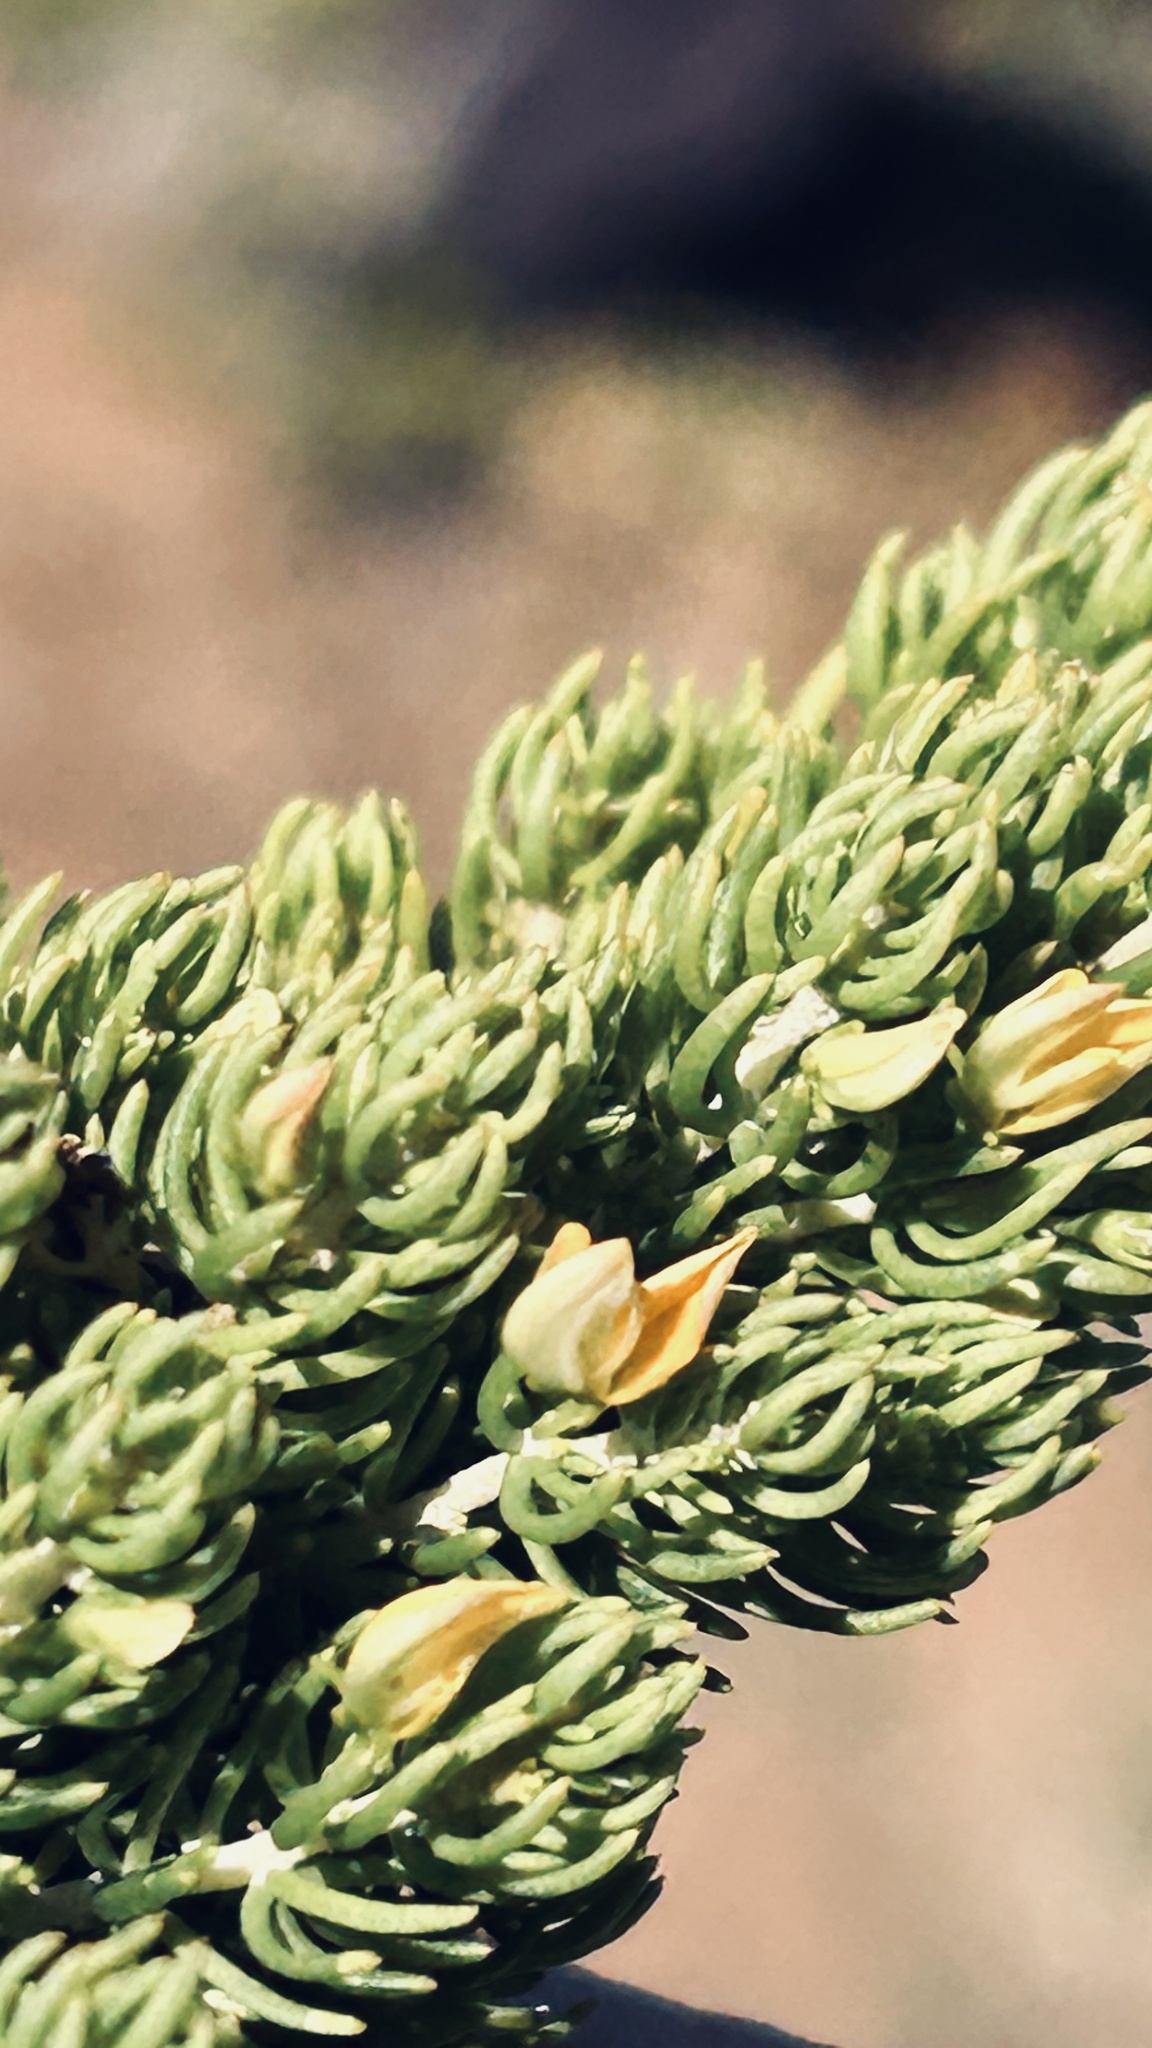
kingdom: Plantae
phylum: Tracheophyta
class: Magnoliopsida
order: Fabales
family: Fabaceae
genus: Aspalathus
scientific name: Aspalathus sanguinea
